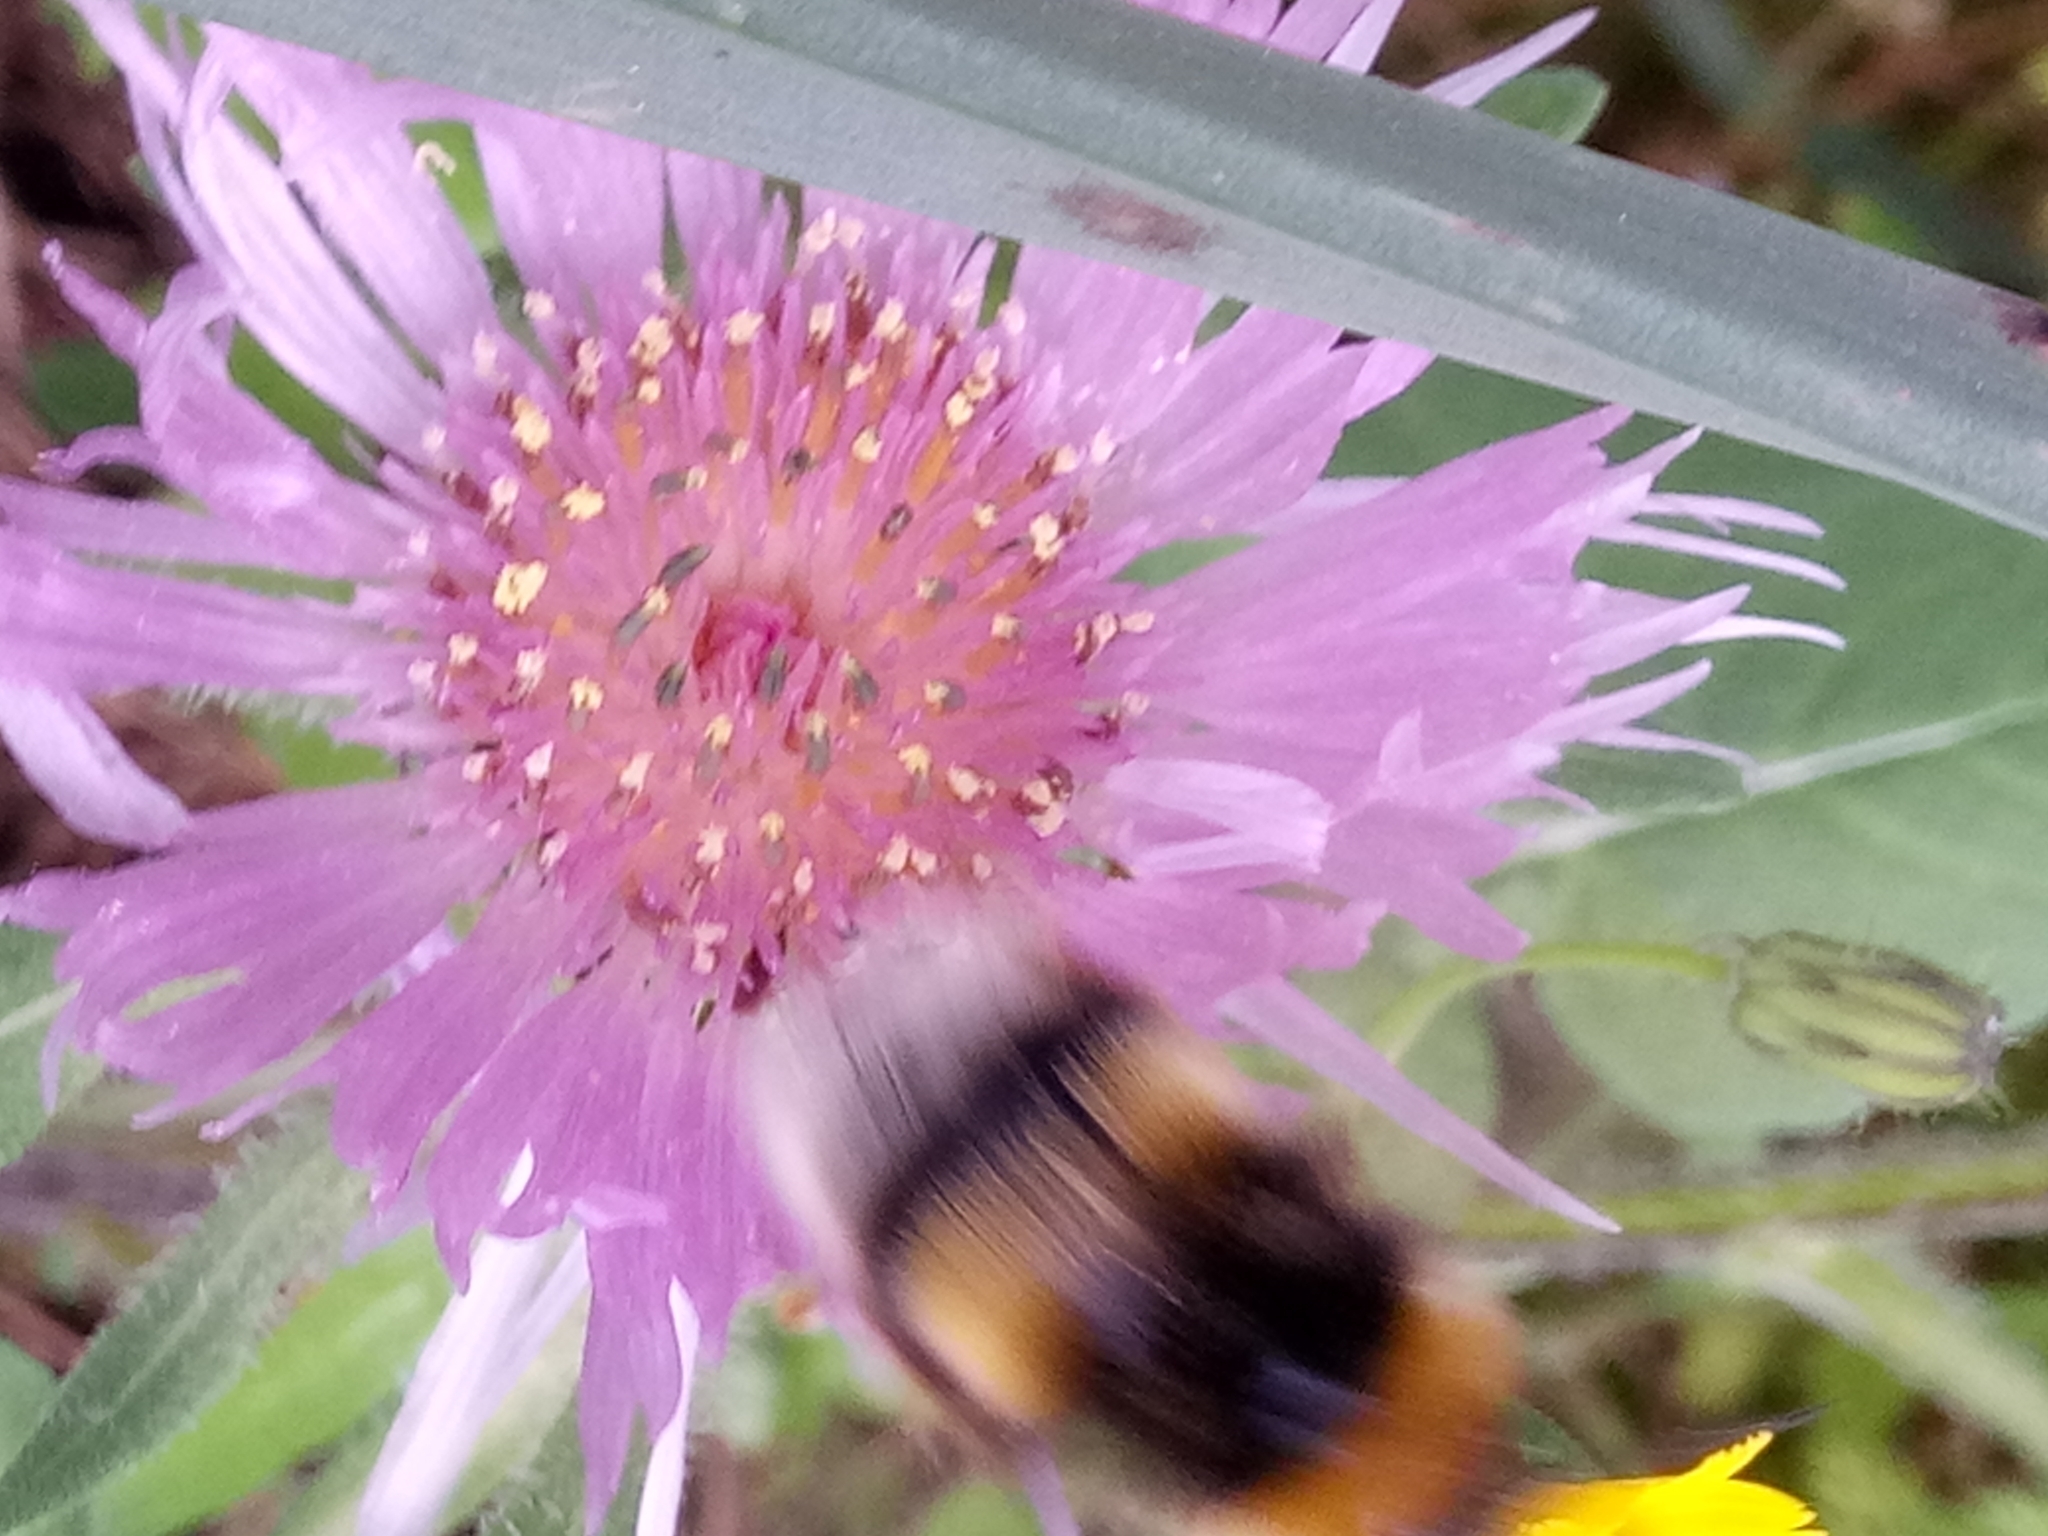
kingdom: Animalia
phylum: Arthropoda
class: Insecta
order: Hymenoptera
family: Apidae
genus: Bombus
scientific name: Bombus terrestris
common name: Buff-tailed bumblebee
